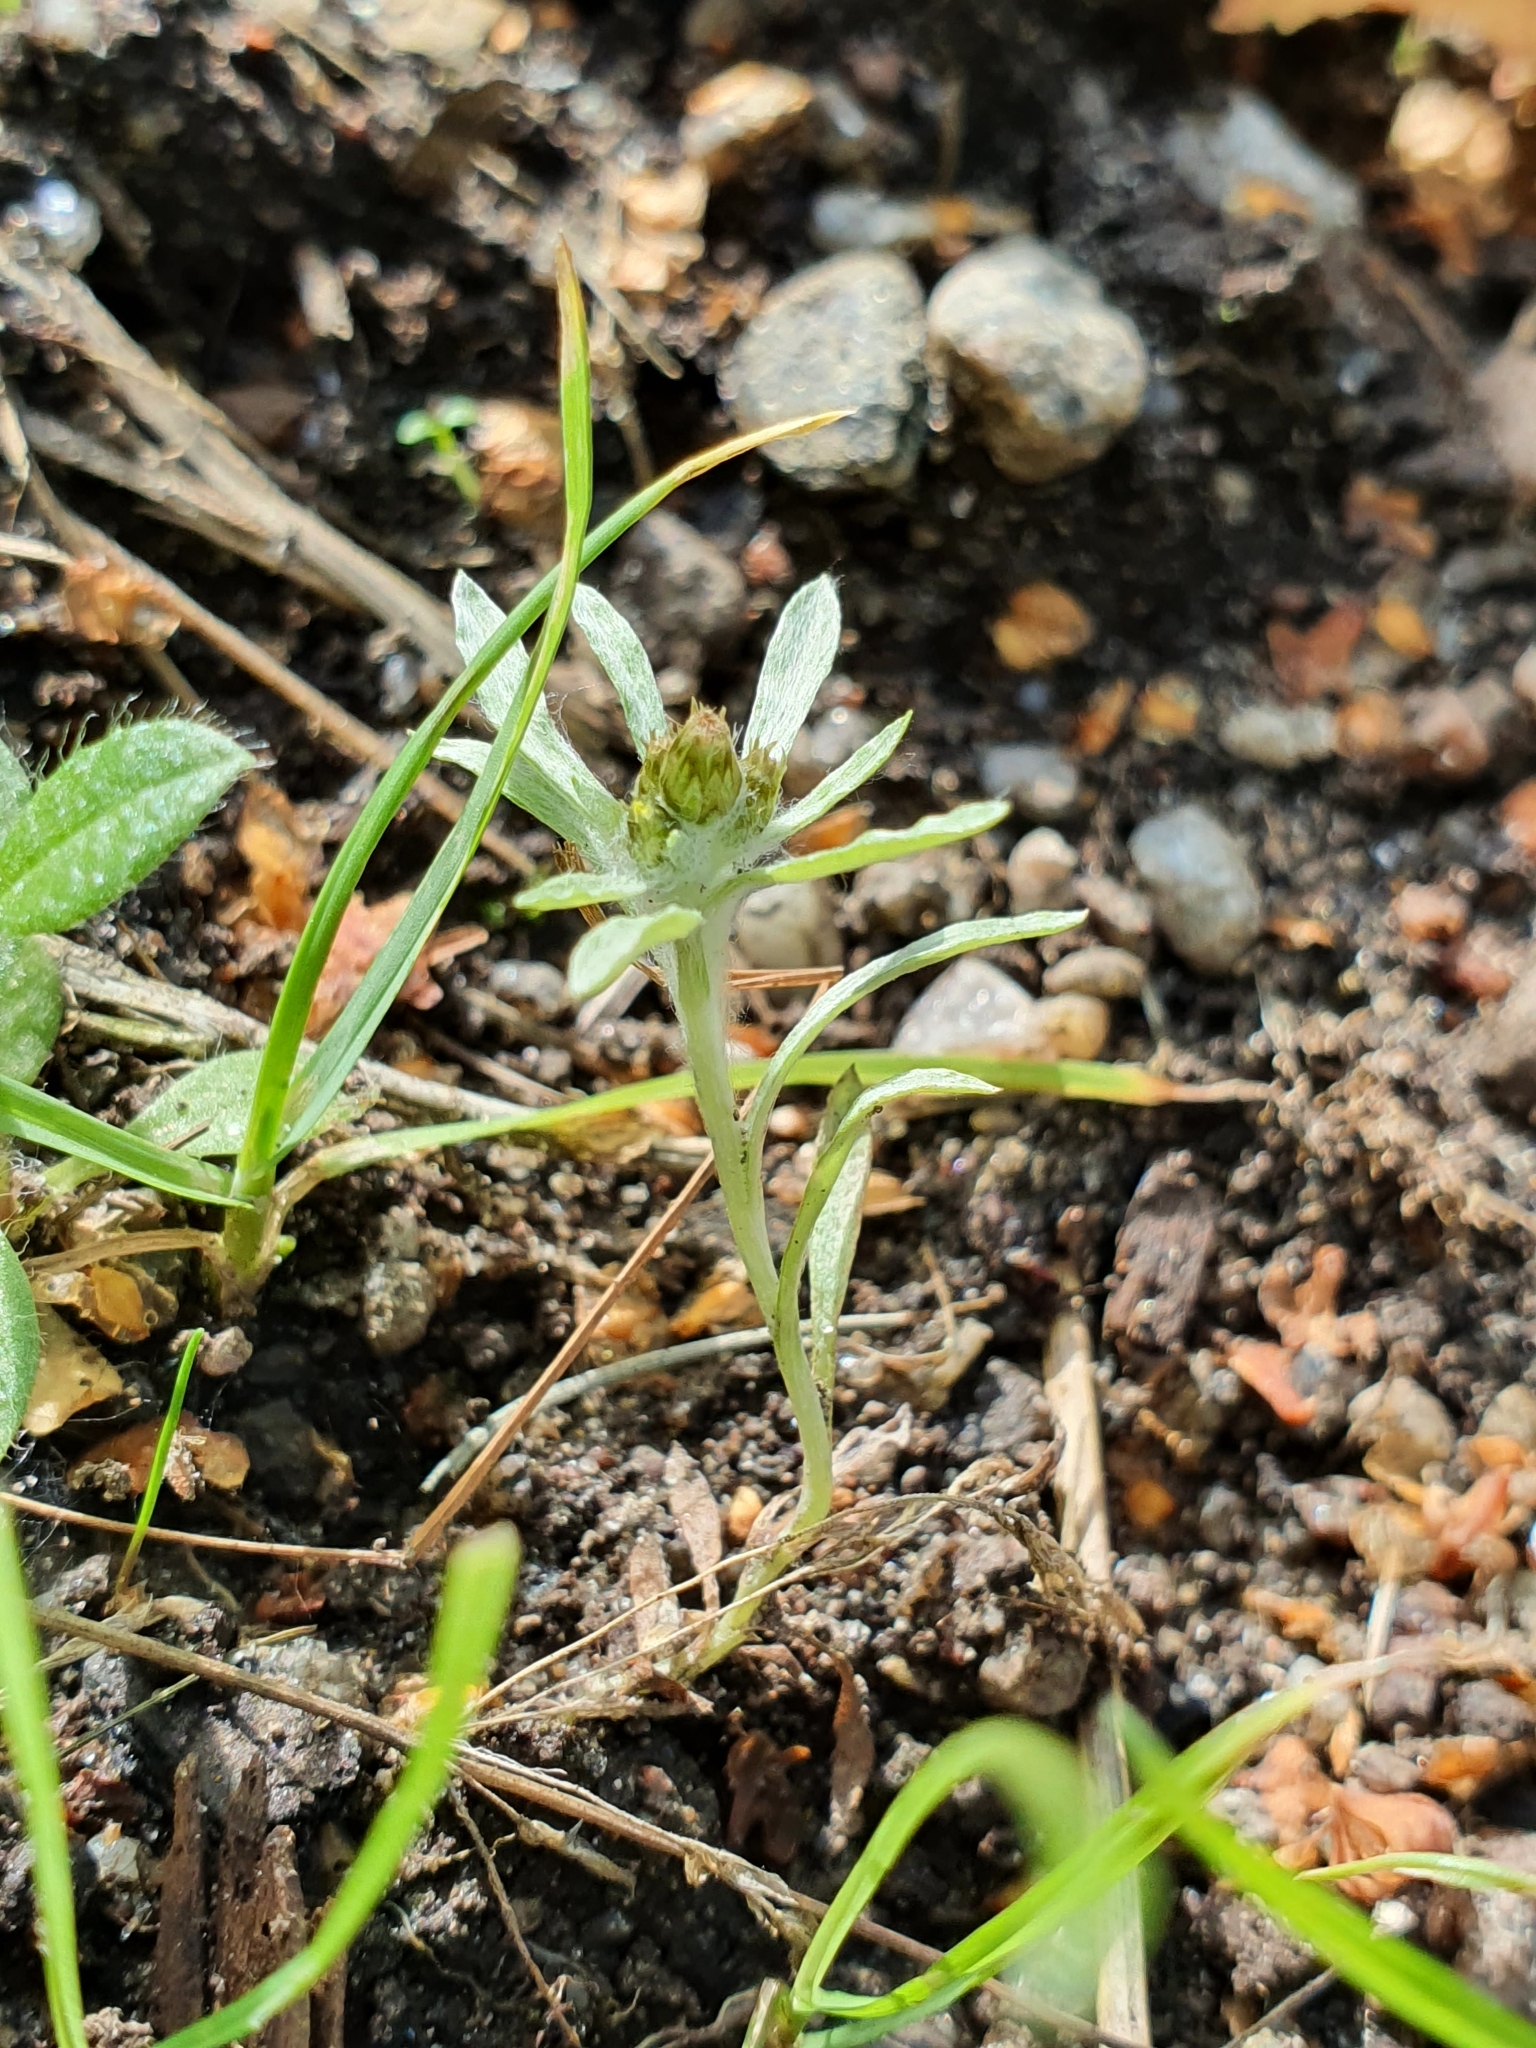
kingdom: Plantae
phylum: Tracheophyta
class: Magnoliopsida
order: Asterales
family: Asteraceae
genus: Gnaphalium
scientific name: Gnaphalium uliginosum
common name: Marsh cudweed
